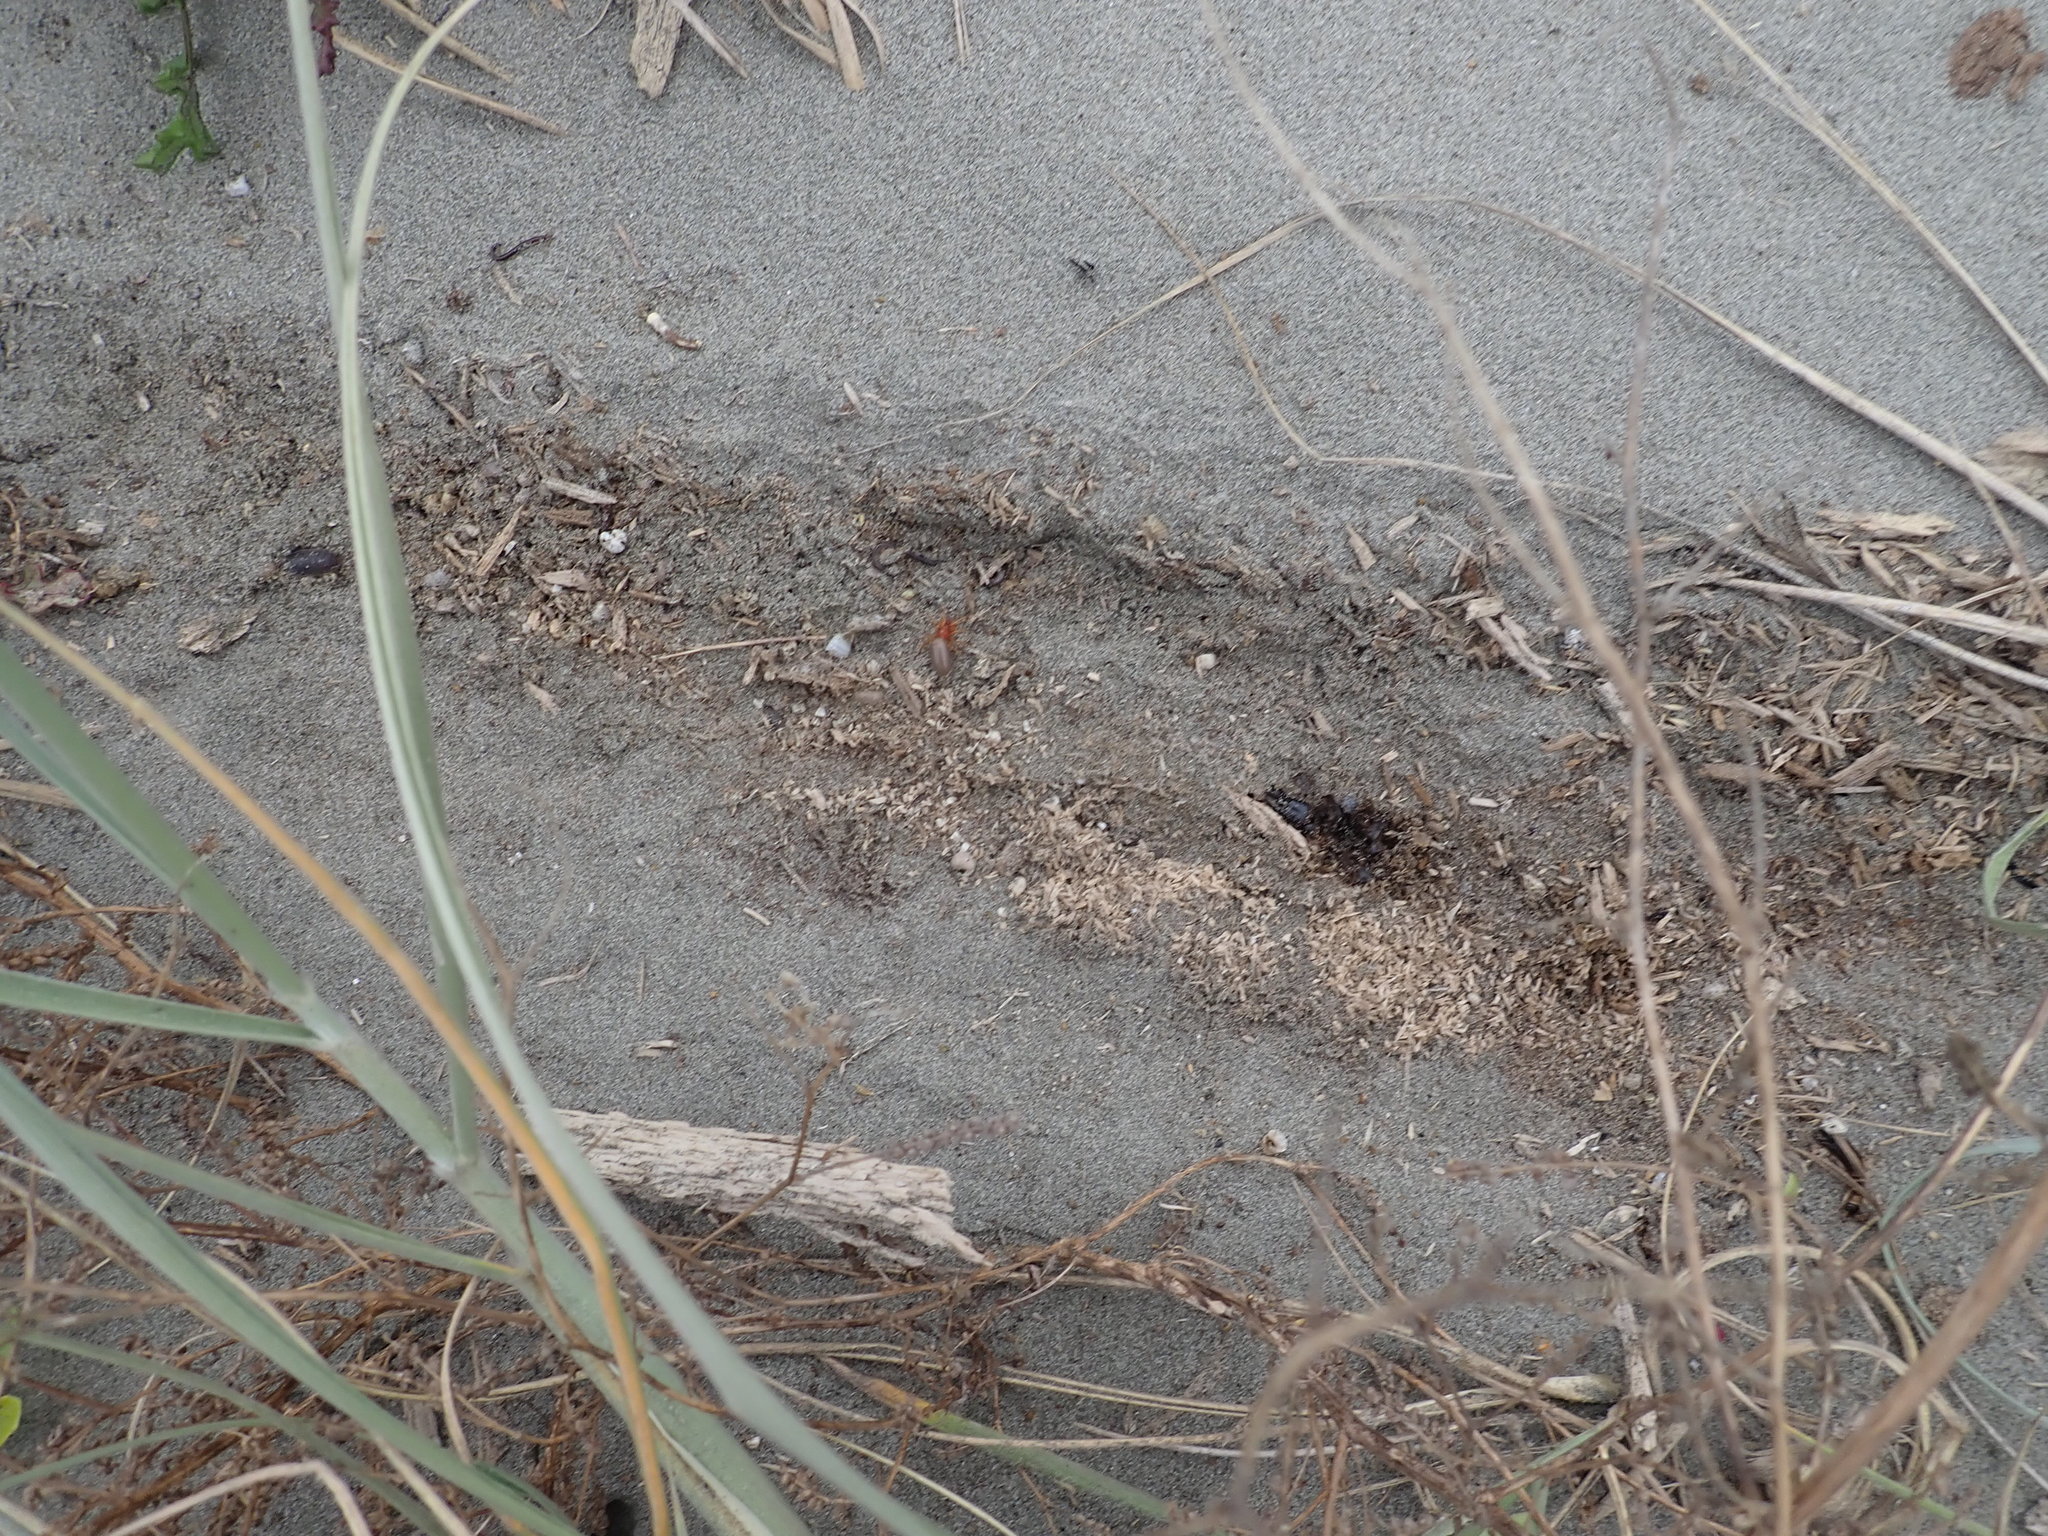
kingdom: Animalia
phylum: Arthropoda
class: Arachnida
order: Araneae
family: Dysderidae
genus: Dysdera
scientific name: Dysdera crocata
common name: Woodlouse spider
